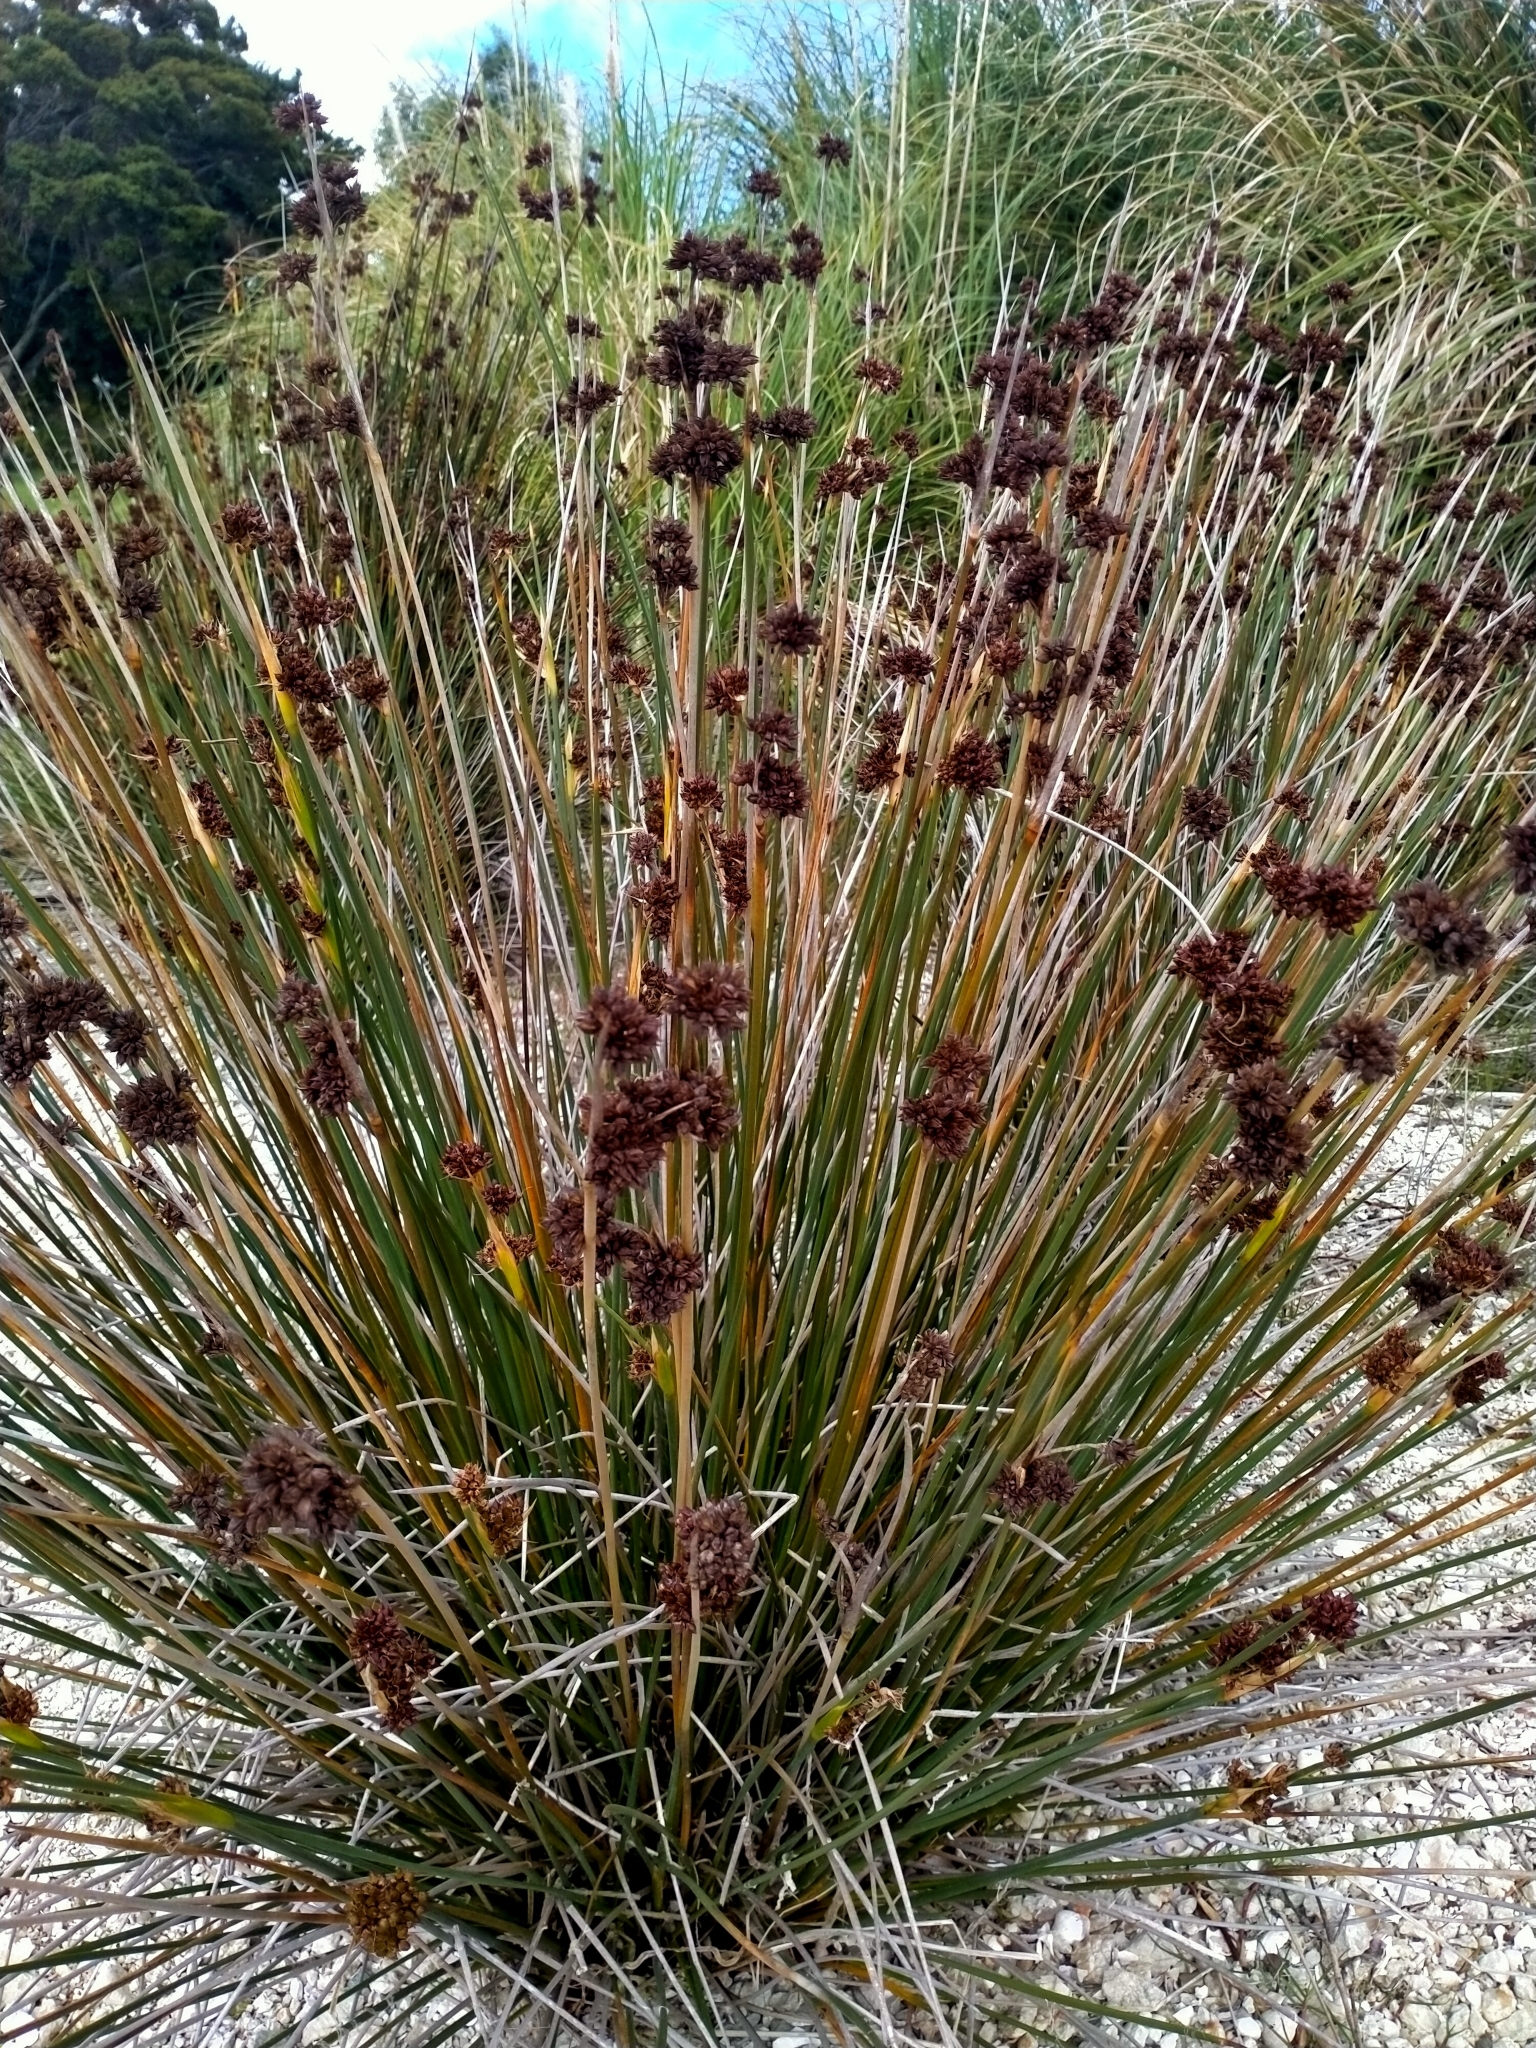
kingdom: Plantae
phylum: Tracheophyta
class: Liliopsida
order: Poales
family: Juncaceae
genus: Juncus
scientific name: Juncus acutus
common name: Sharp rush
